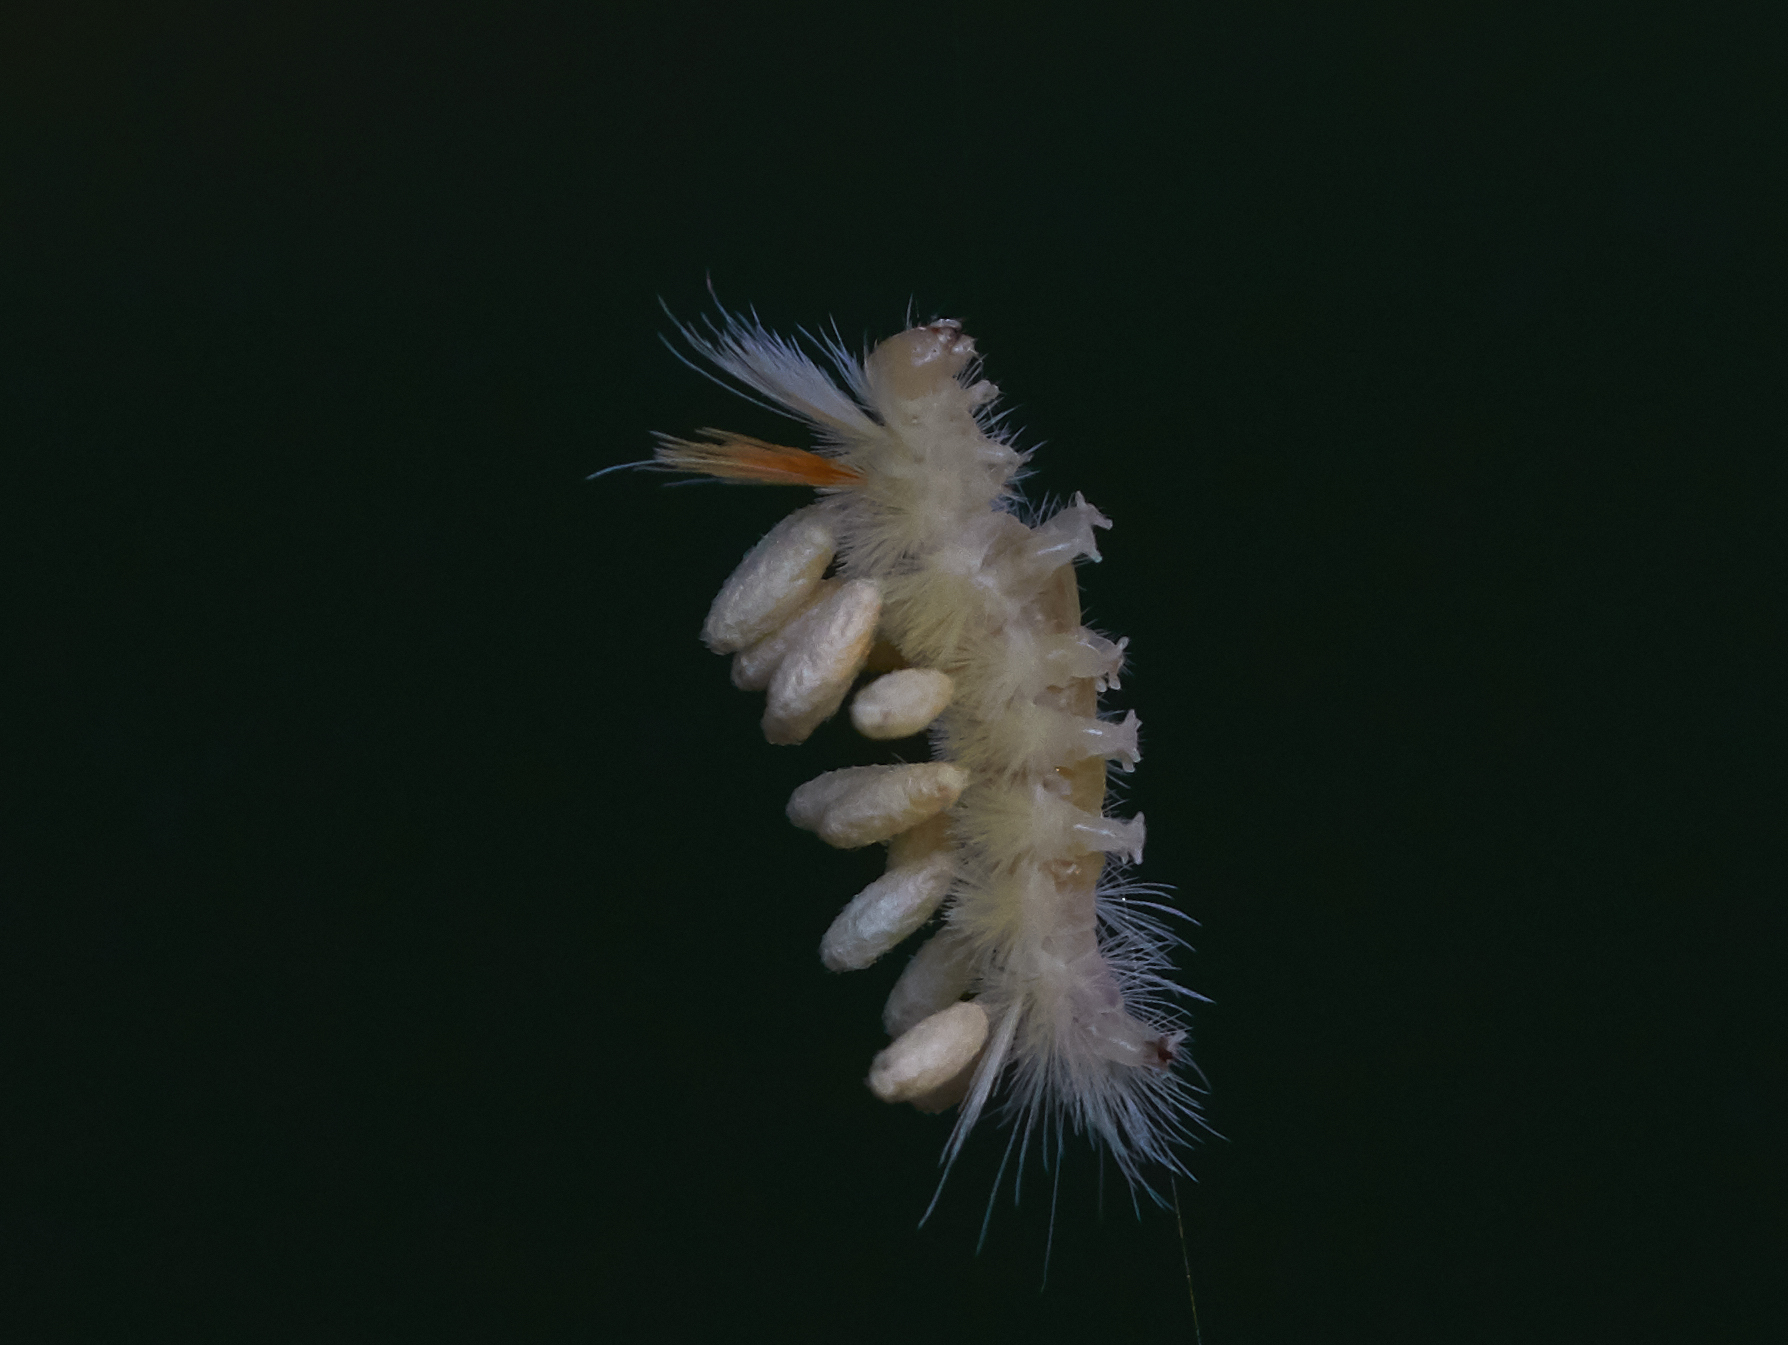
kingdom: Animalia
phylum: Arthropoda
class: Insecta
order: Lepidoptera
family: Erebidae
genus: Halysidota
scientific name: Halysidota harrisii
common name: Sycamore tussock moth
